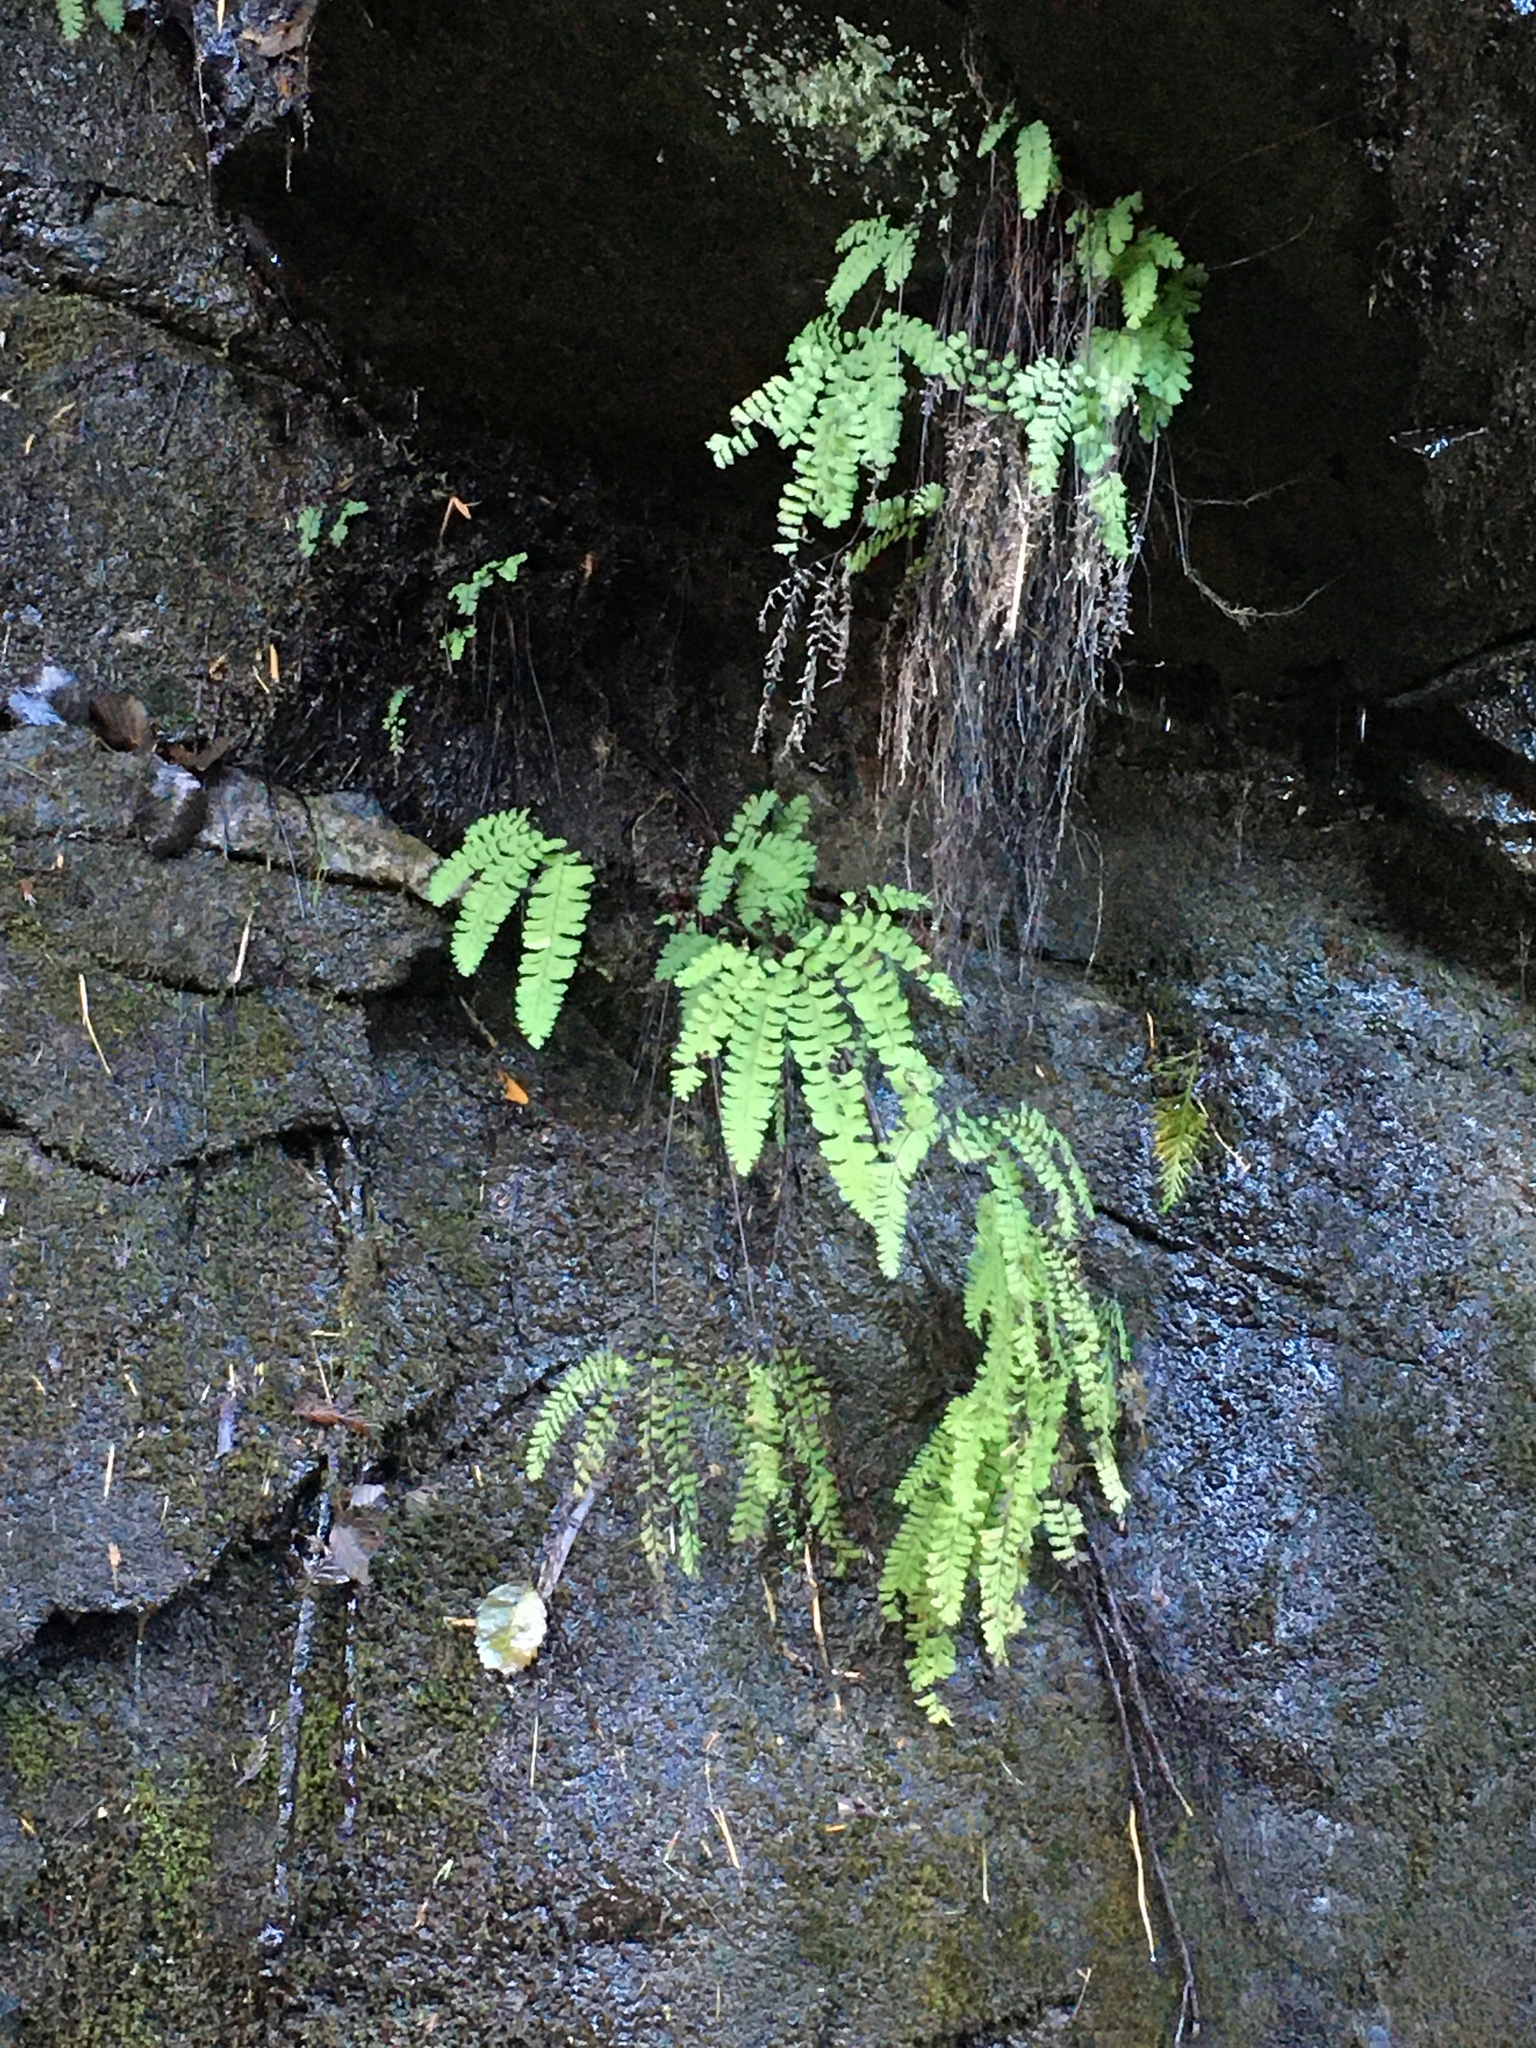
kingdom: Plantae
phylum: Tracheophyta
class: Polypodiopsida
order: Polypodiales
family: Pteridaceae
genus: Adiantum
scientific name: Adiantum aleuticum
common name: Aleutian maidenhair fern
